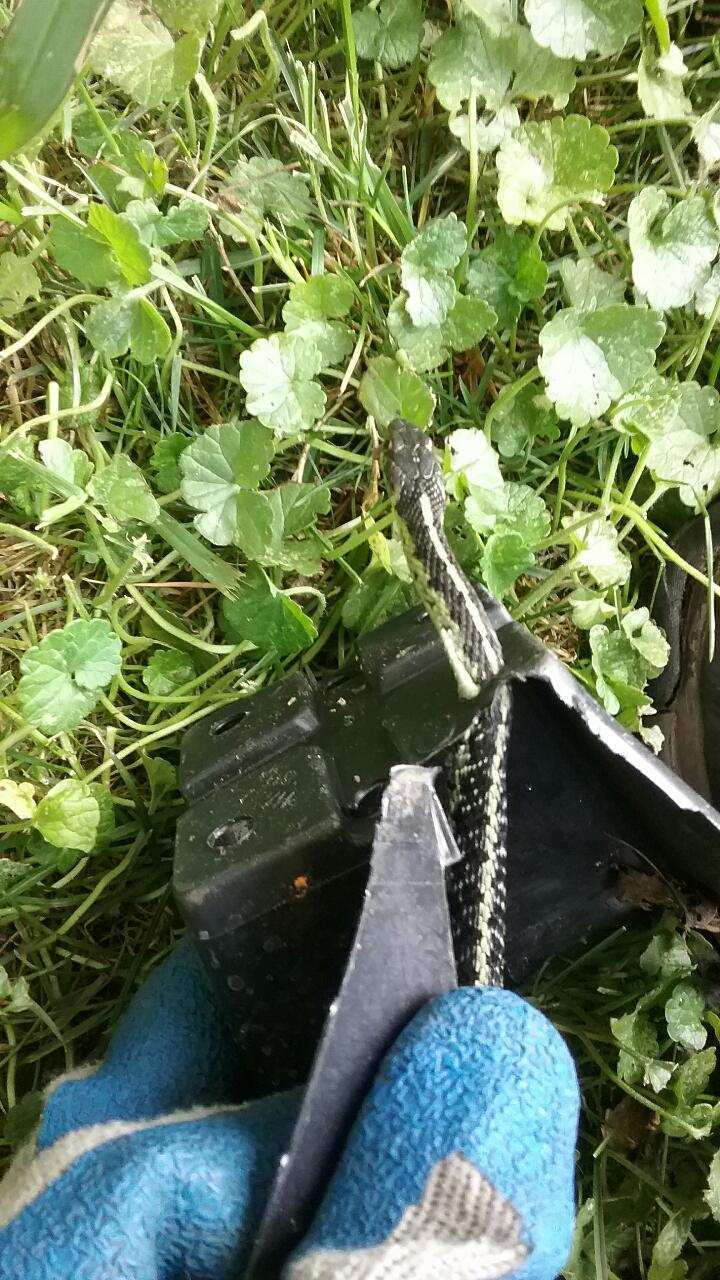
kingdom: Animalia
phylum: Chordata
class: Squamata
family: Colubridae
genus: Thamnophis
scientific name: Thamnophis sirtalis
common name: Common garter snake
